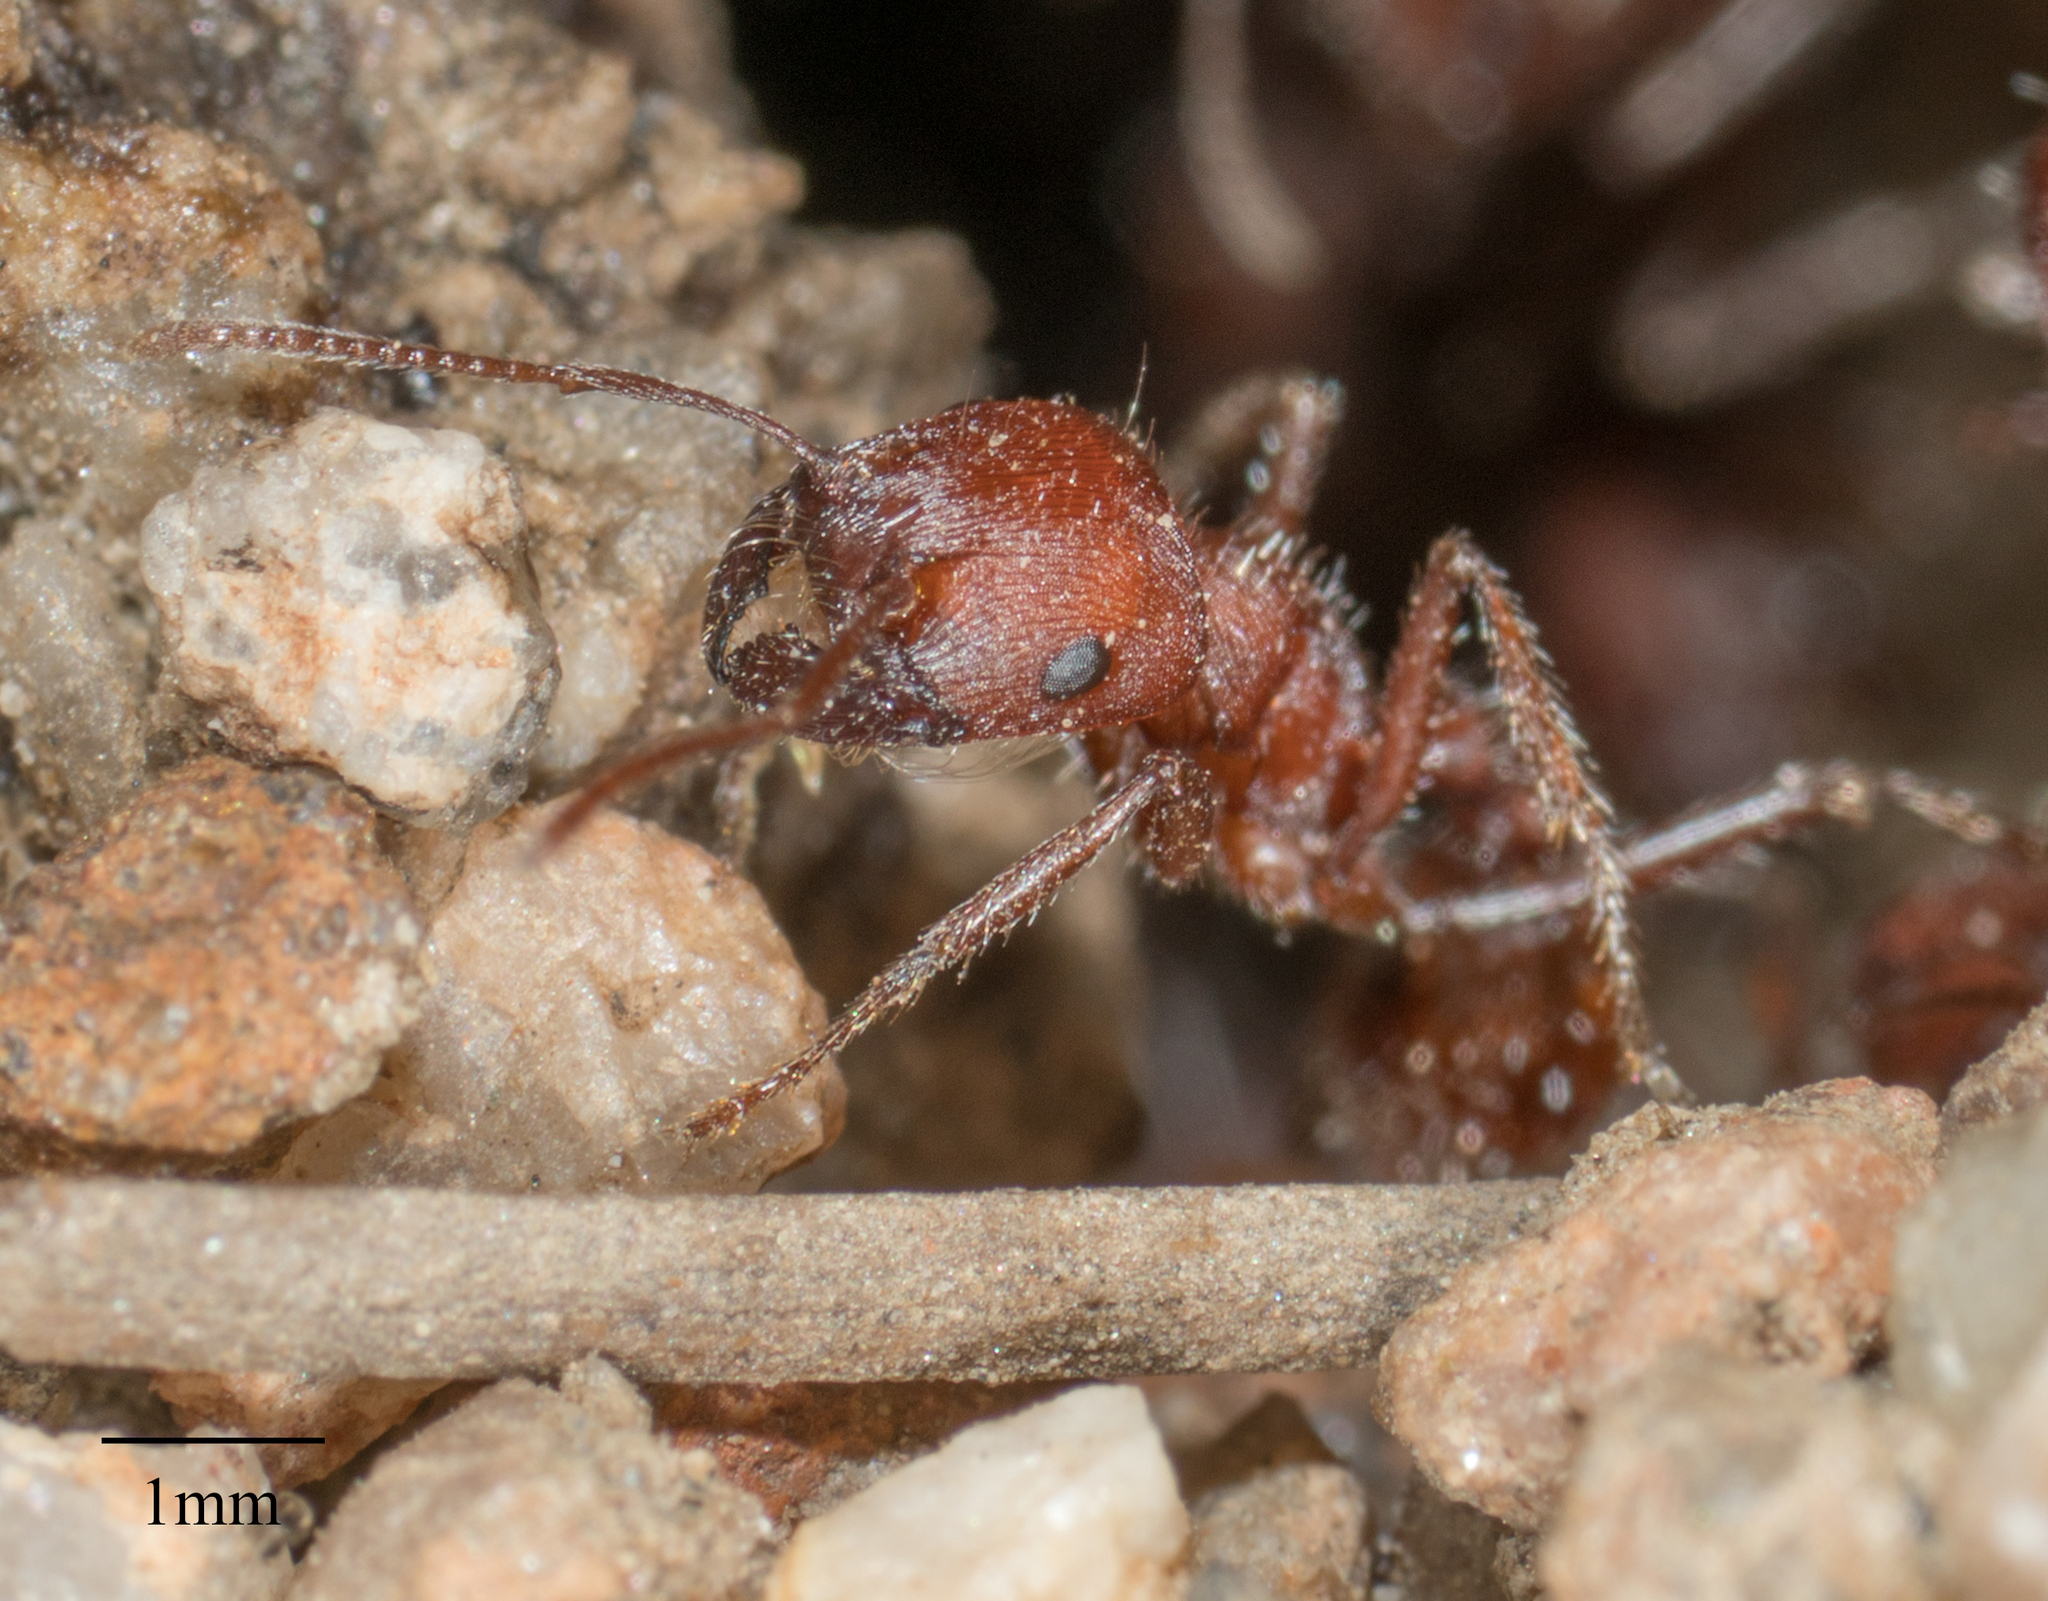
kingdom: Animalia
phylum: Arthropoda
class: Insecta
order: Hymenoptera
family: Formicidae
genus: Pogonomyrmex
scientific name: Pogonomyrmex subnitidus
